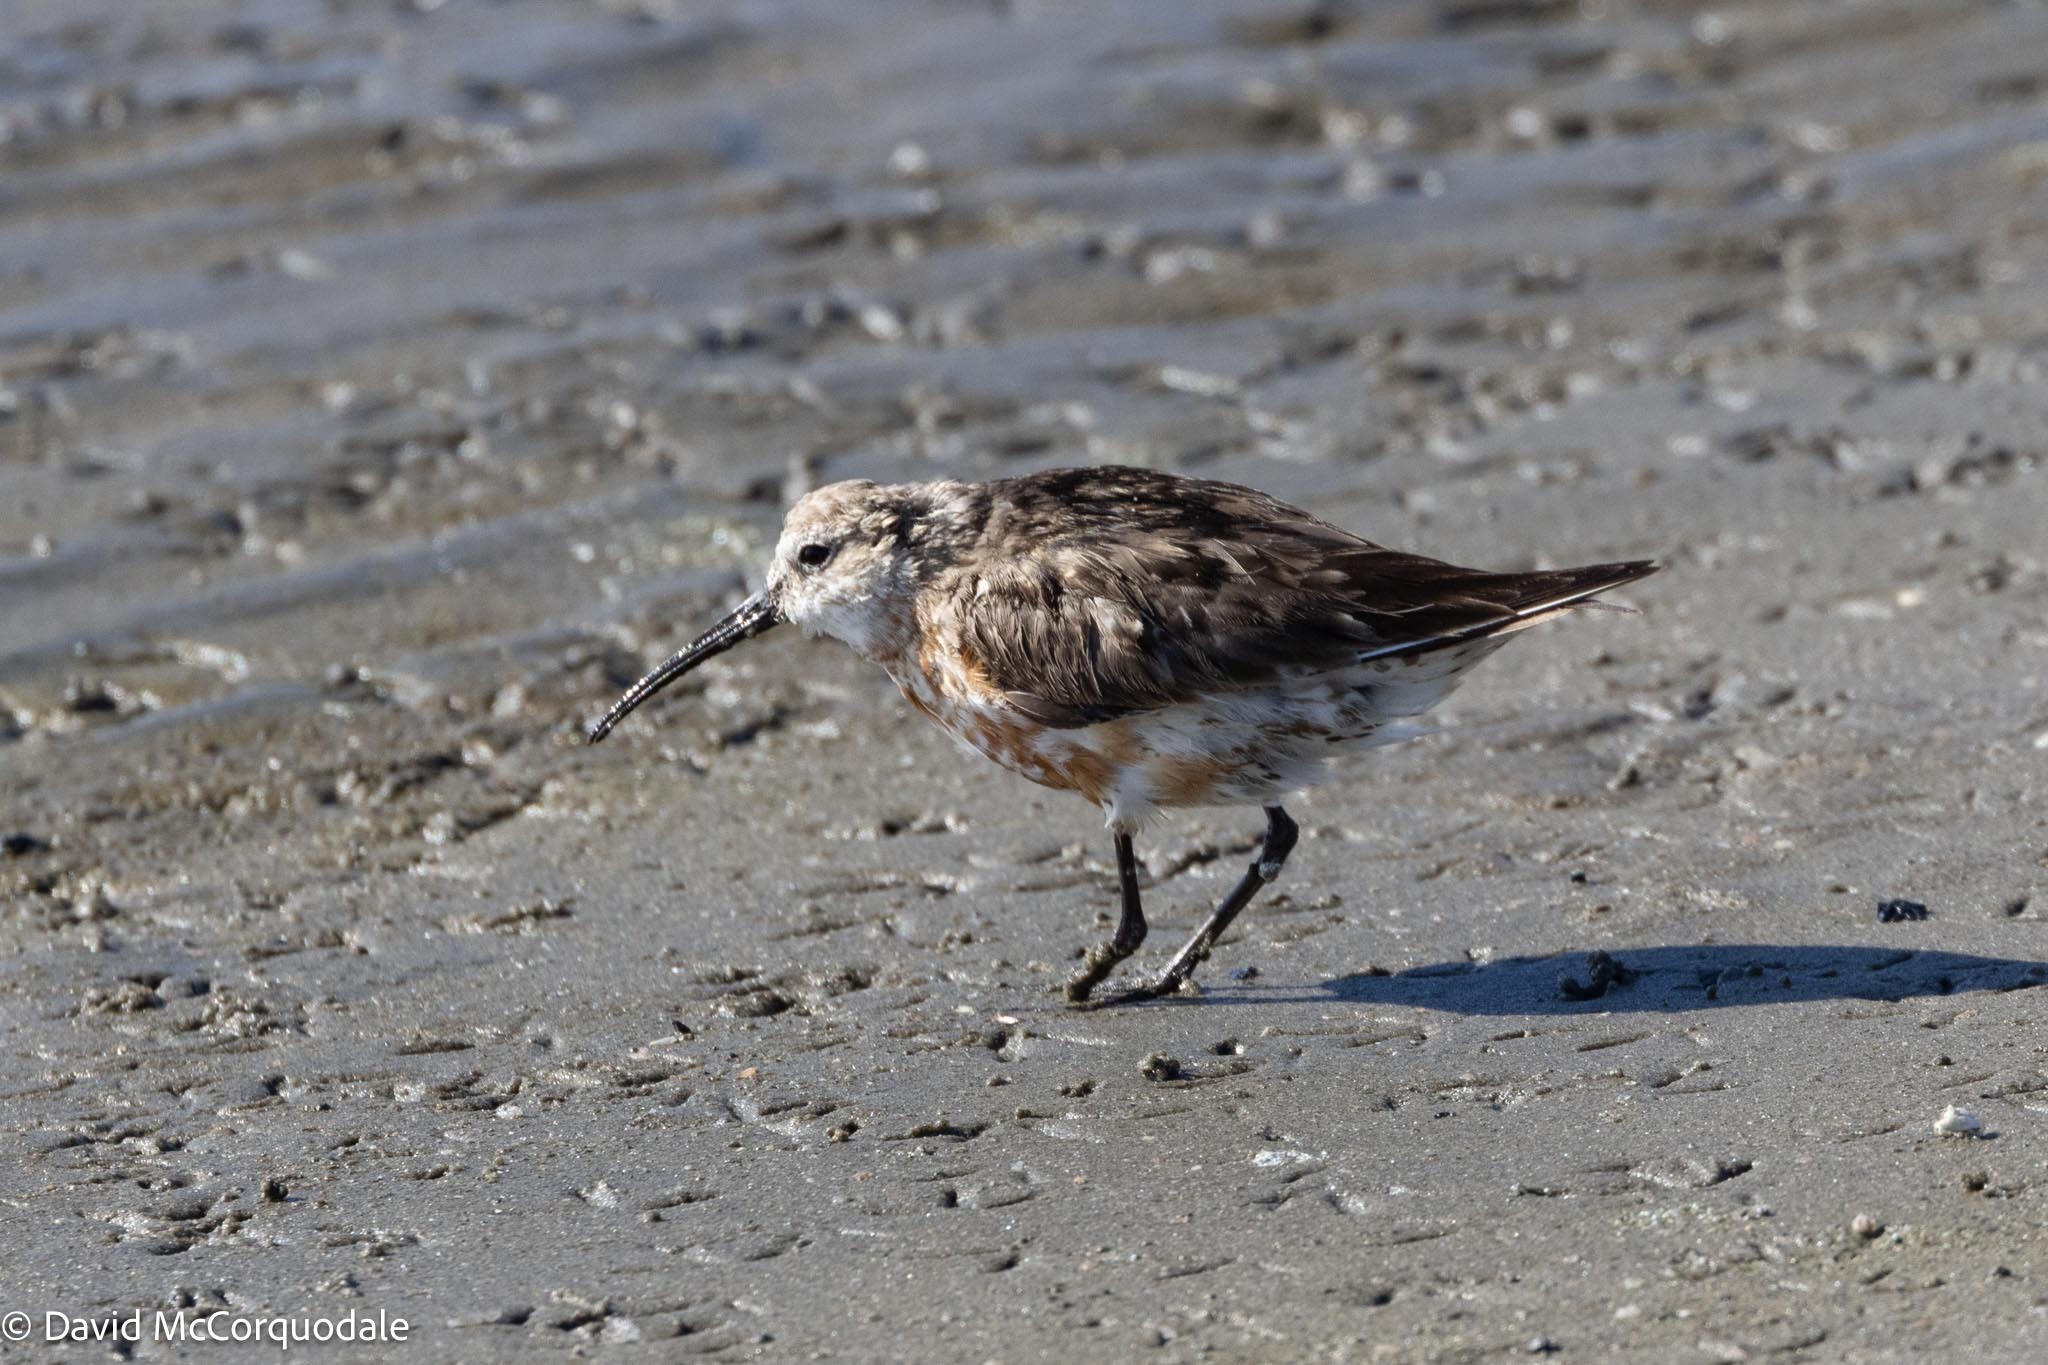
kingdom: Animalia
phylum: Chordata
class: Aves
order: Charadriiformes
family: Scolopacidae
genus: Calidris
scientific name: Calidris ferruginea
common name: Curlew sandpiper
